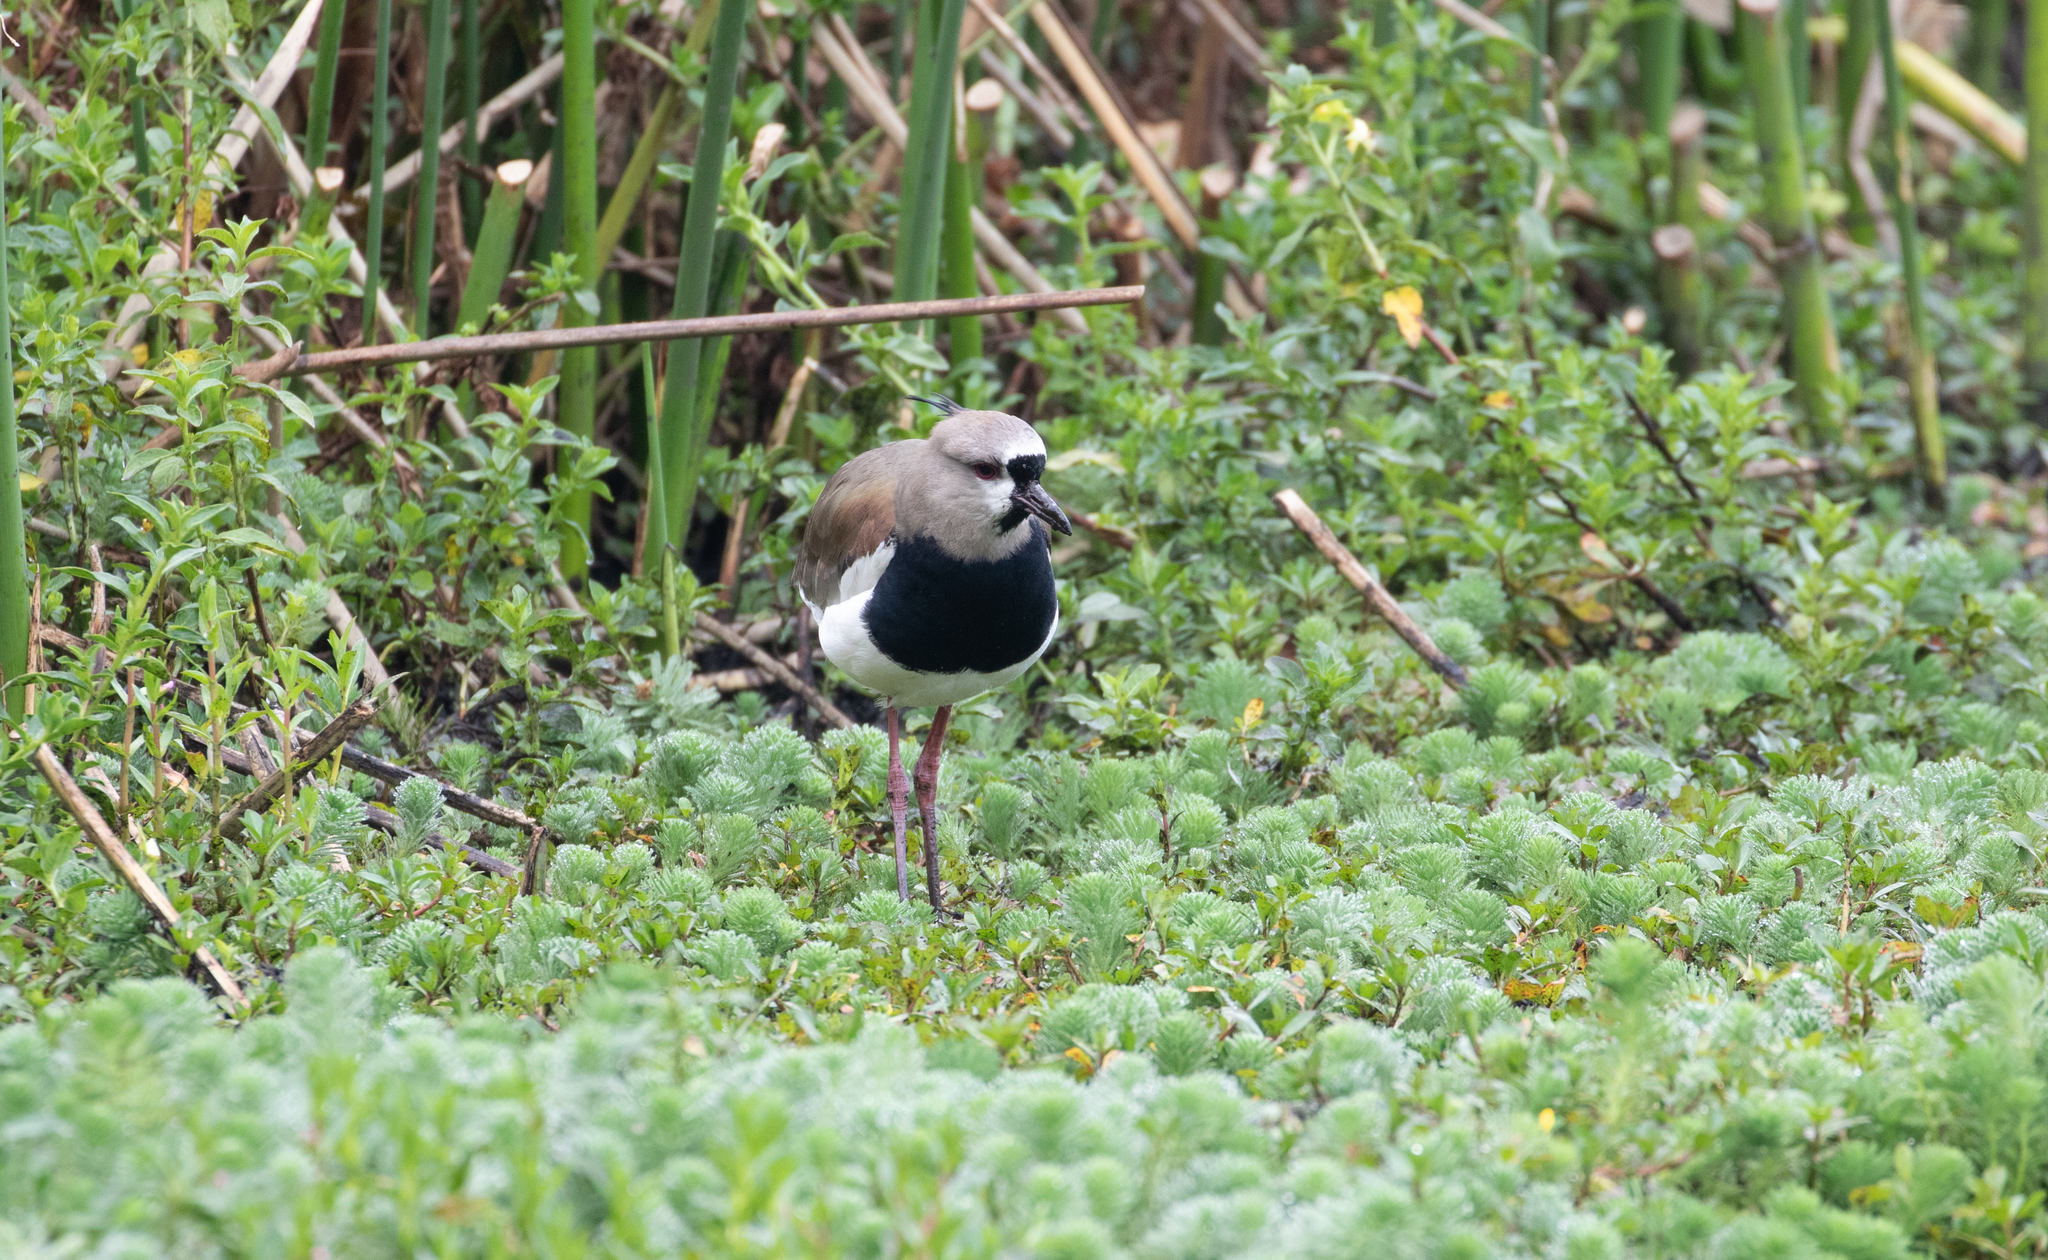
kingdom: Animalia
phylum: Chordata
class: Aves
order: Charadriiformes
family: Charadriidae
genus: Vanellus
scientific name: Vanellus chilensis
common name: Southern lapwing
